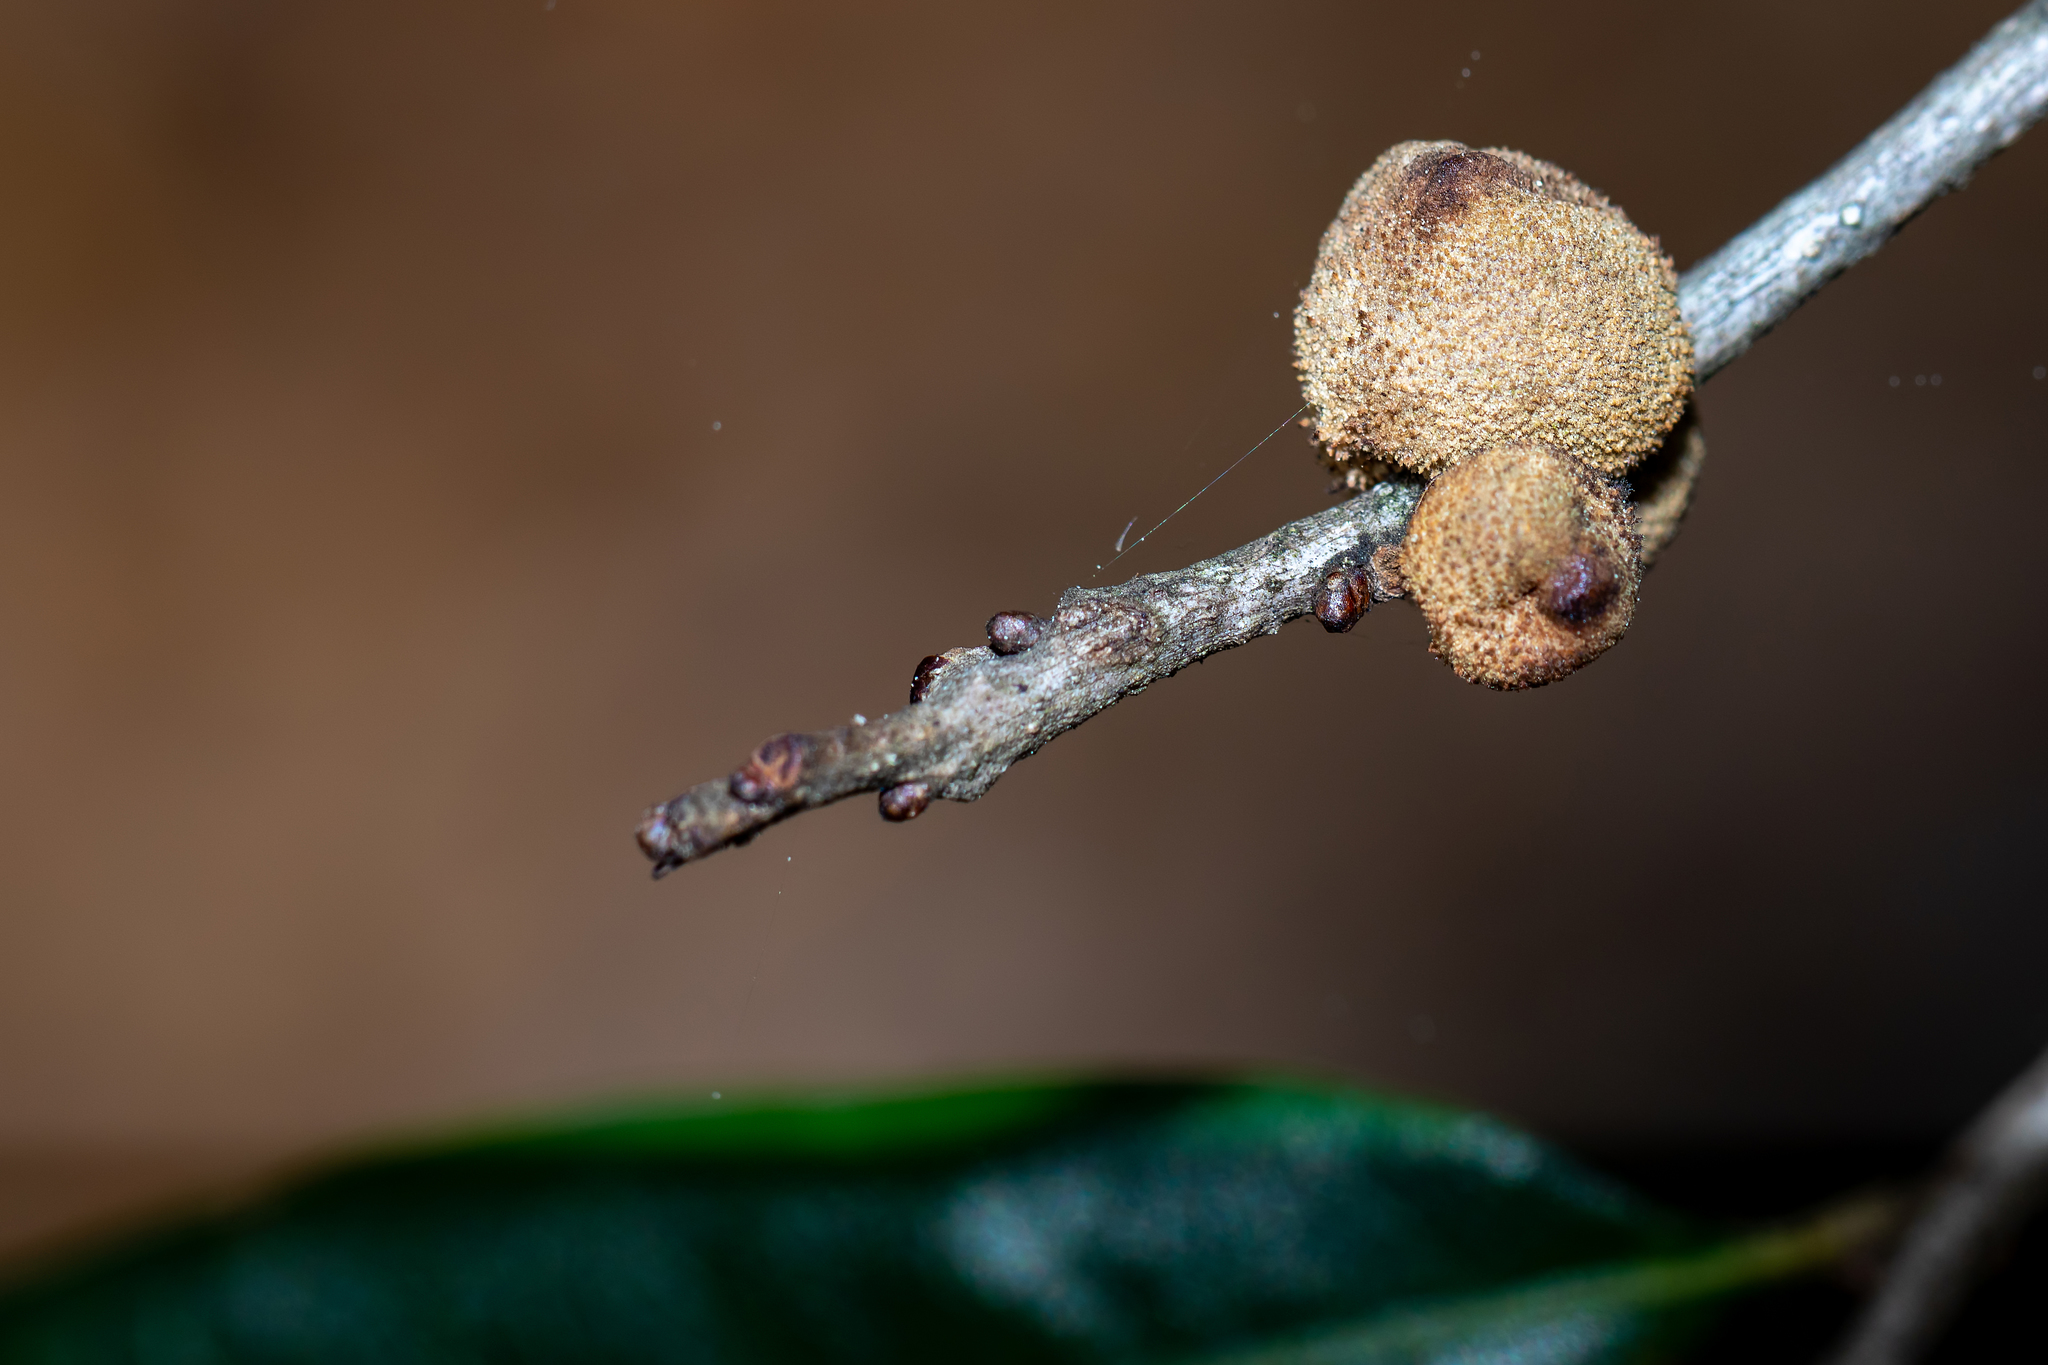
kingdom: Animalia
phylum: Arthropoda
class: Insecta
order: Hymenoptera
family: Cynipidae
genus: Disholcaspis
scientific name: Disholcaspis
